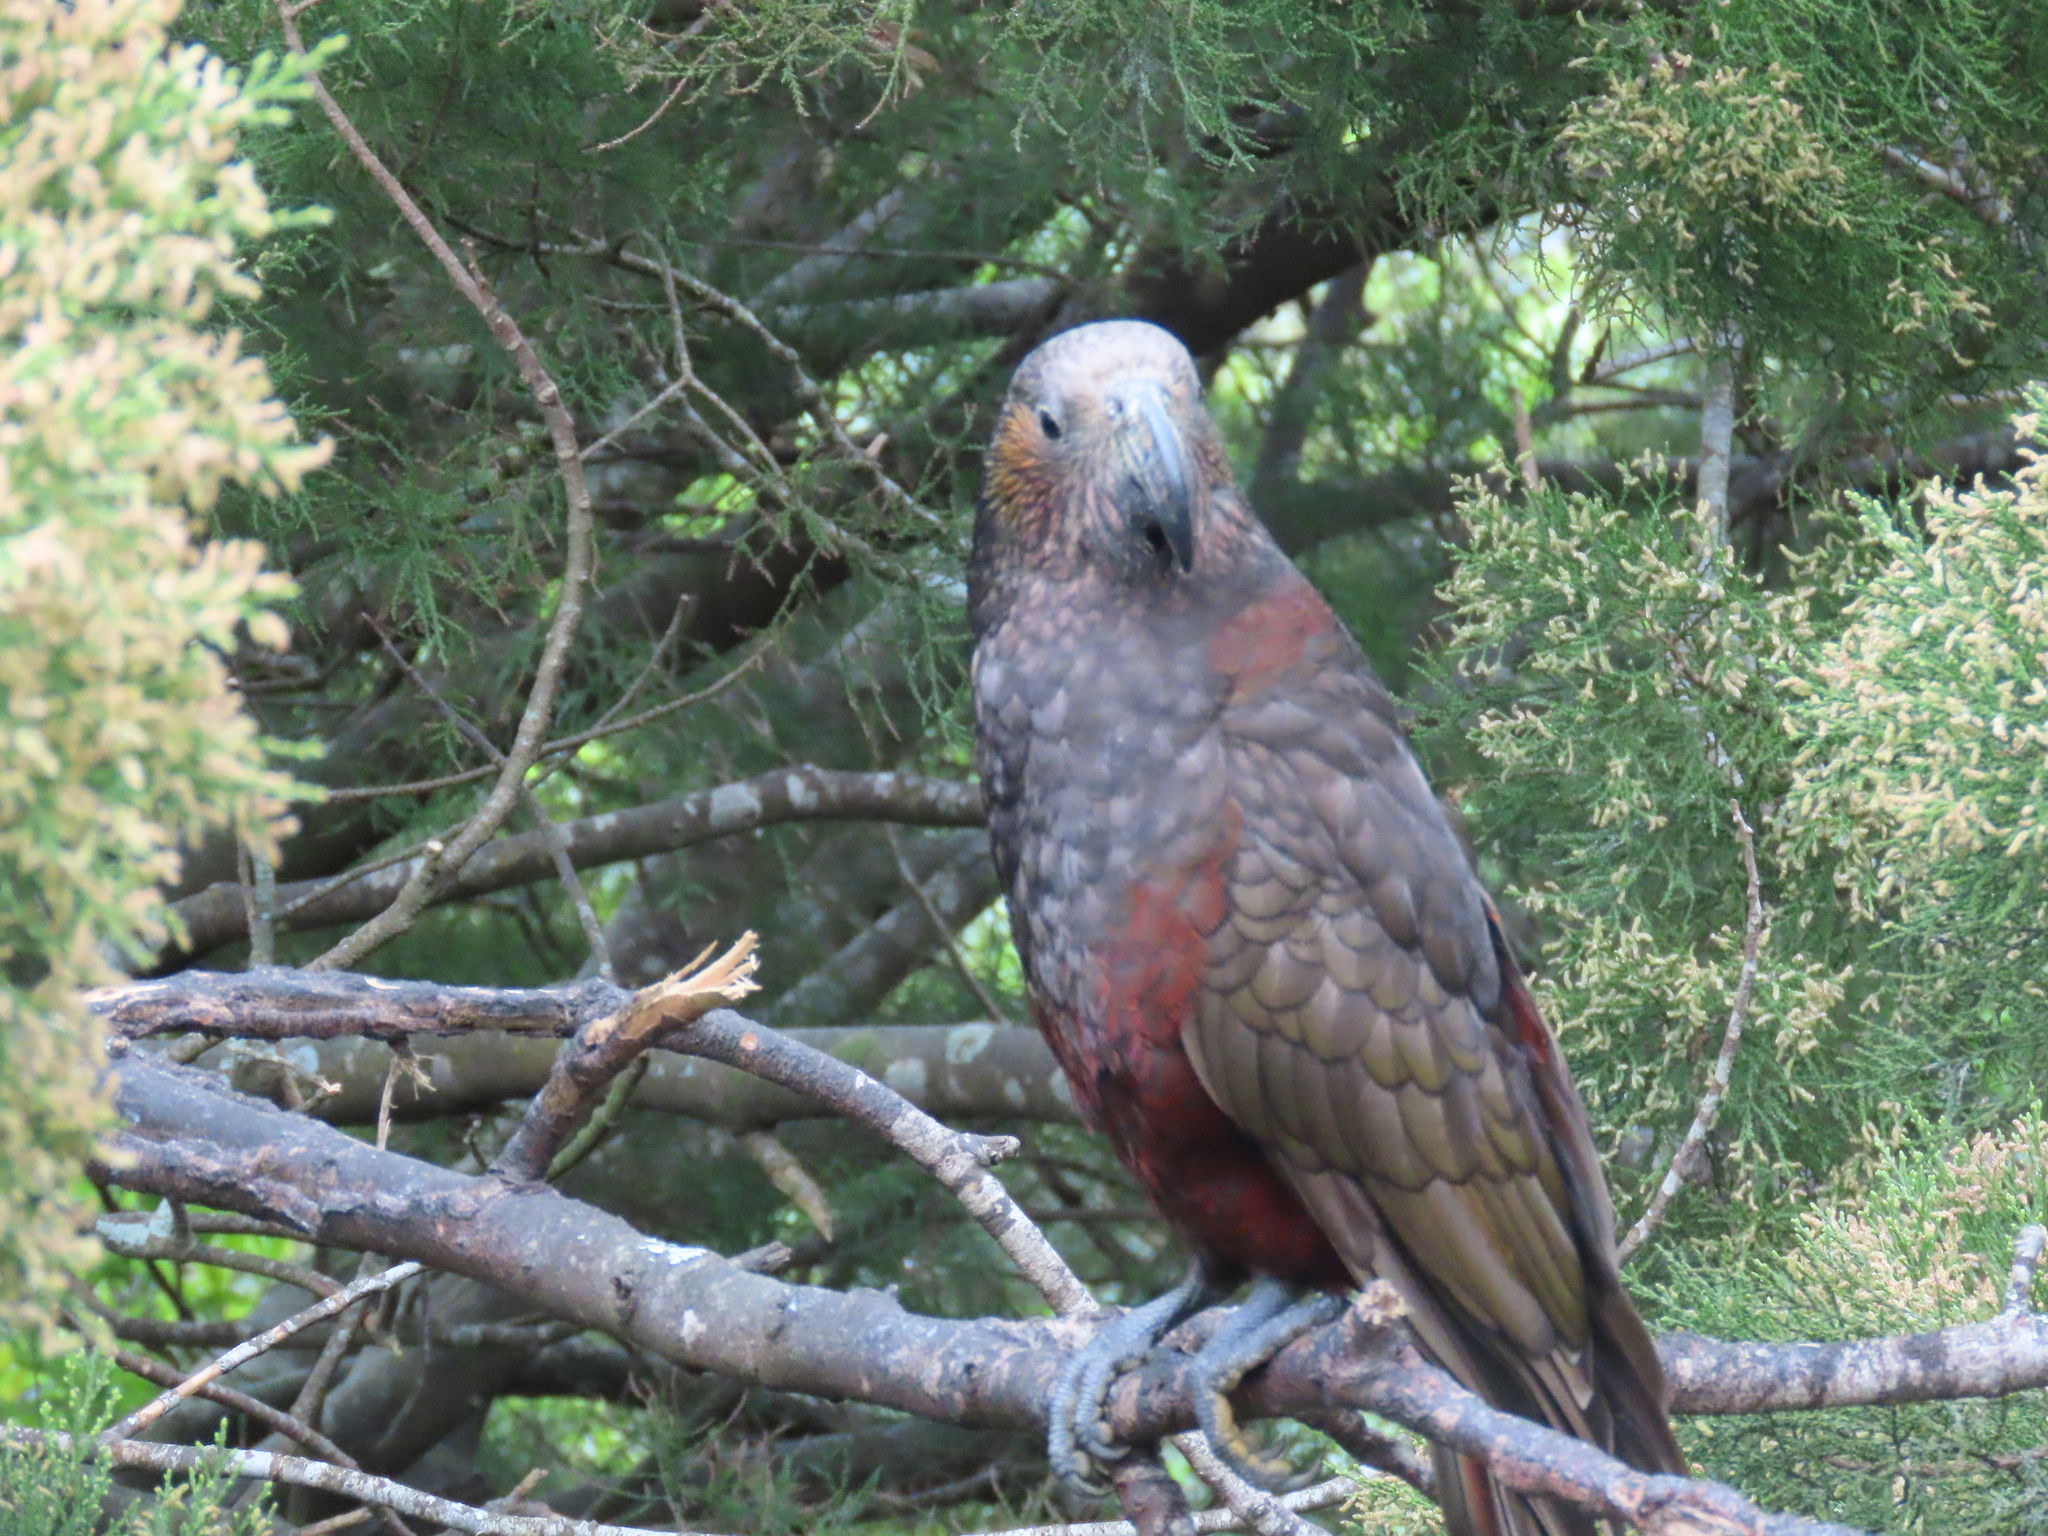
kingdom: Animalia
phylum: Chordata
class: Aves
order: Psittaciformes
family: Psittacidae
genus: Nestor
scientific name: Nestor meridionalis
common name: New zealand kaka
